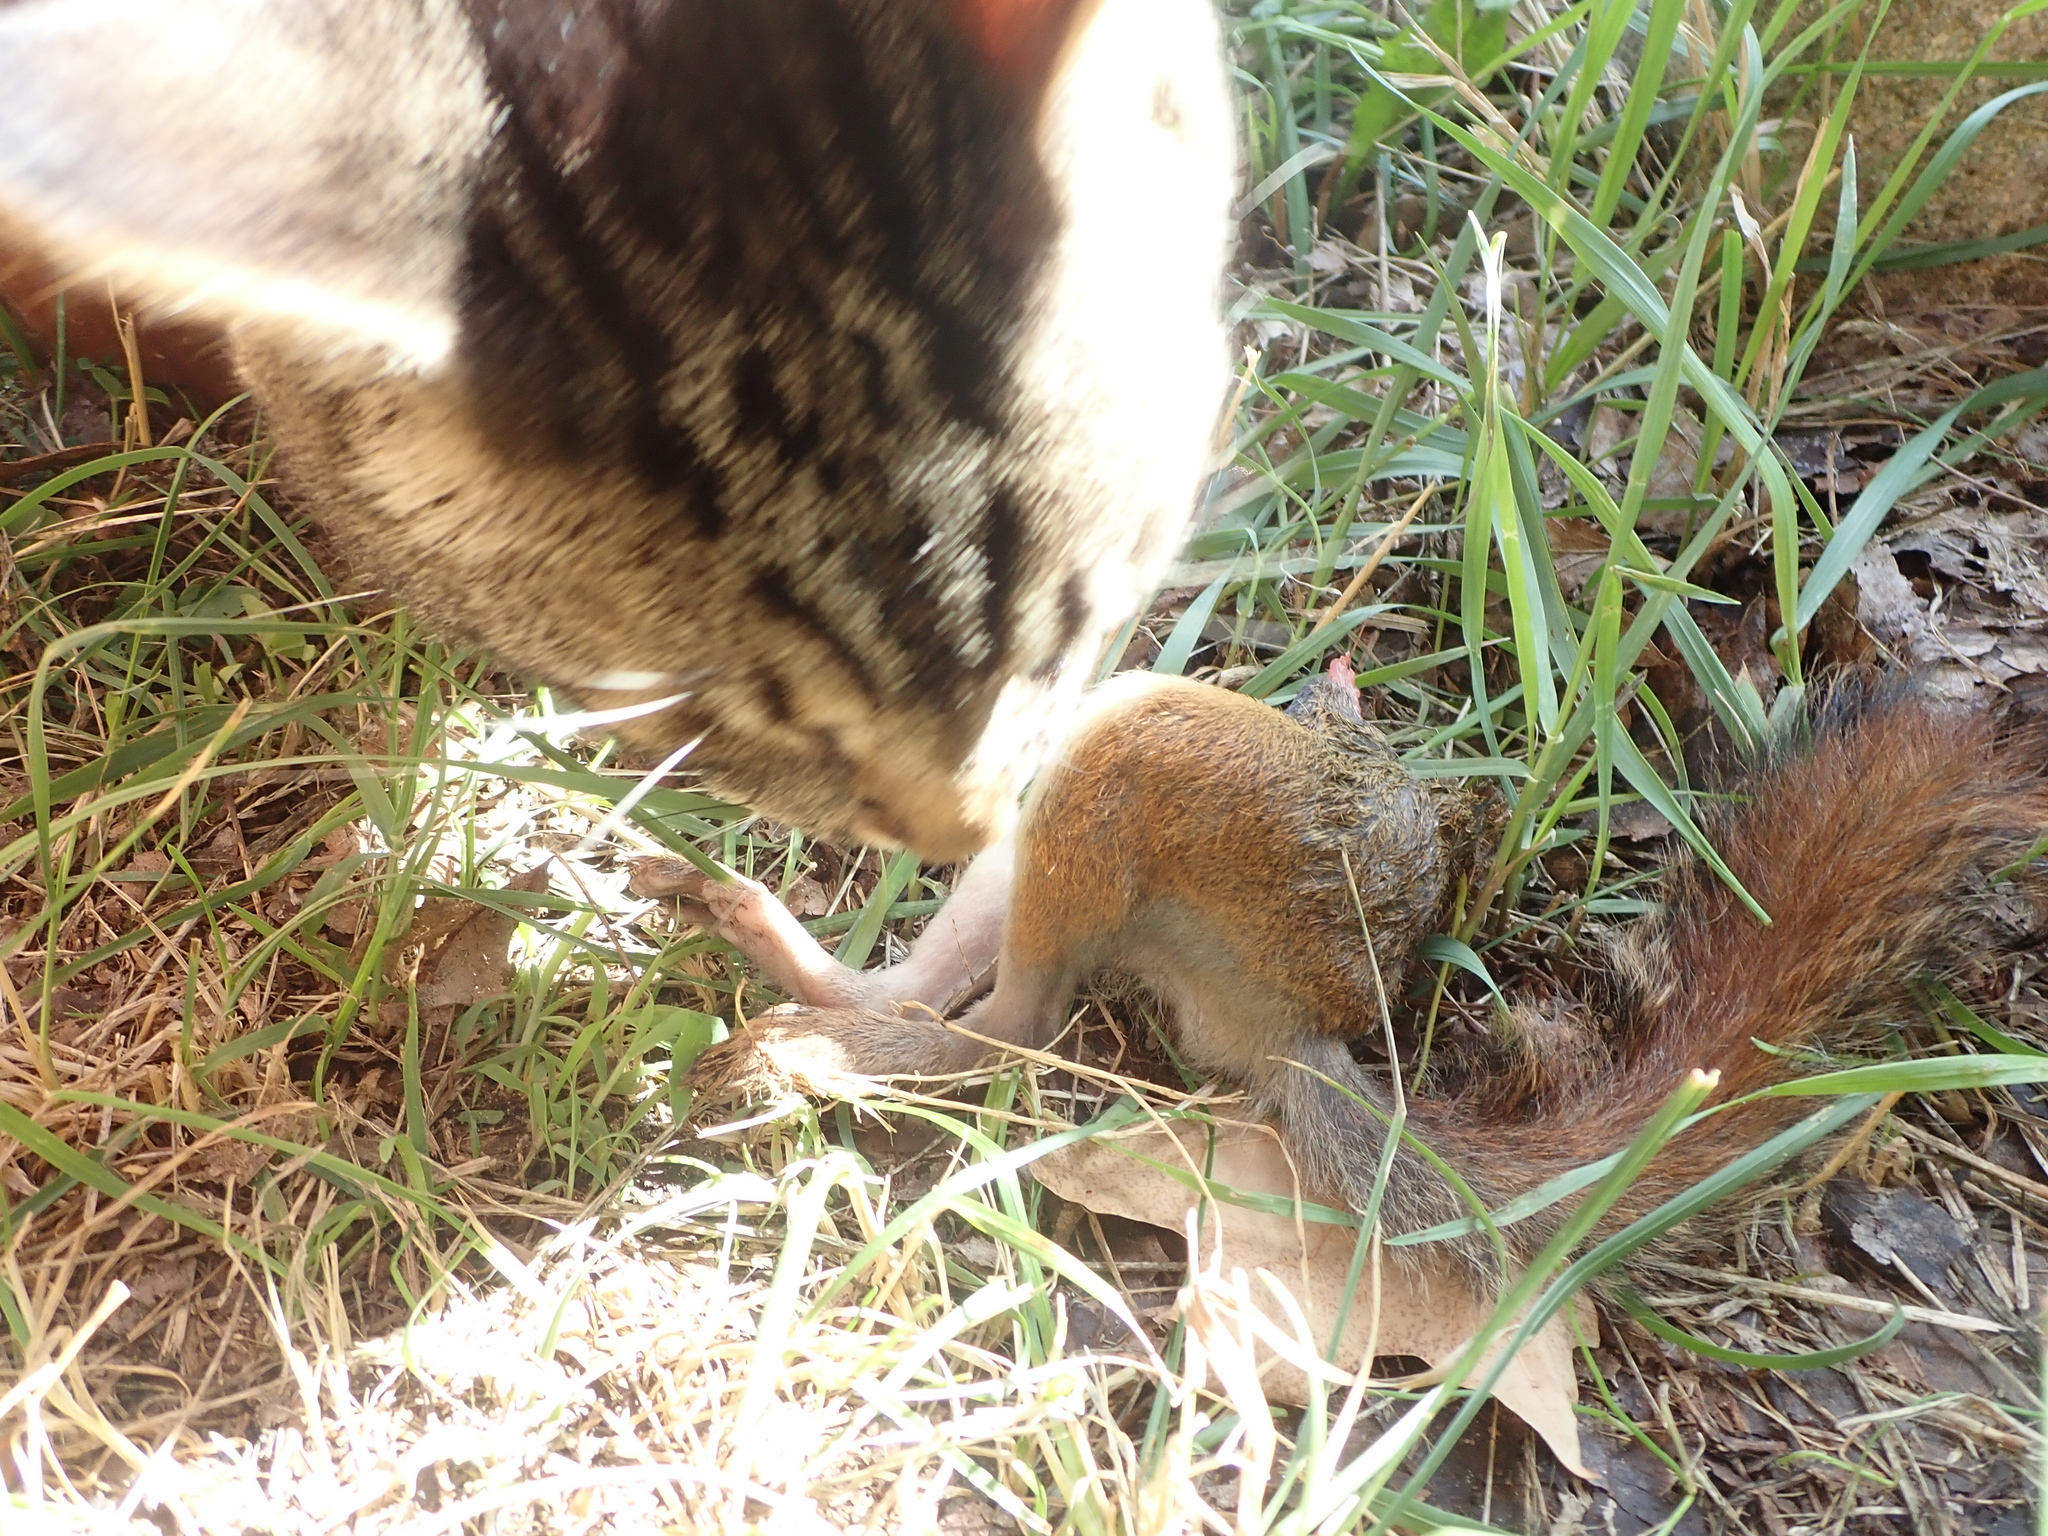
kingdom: Animalia
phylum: Chordata
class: Mammalia
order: Rodentia
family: Sciuridae
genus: Tamiasciurus
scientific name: Tamiasciurus hudsonicus
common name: Red squirrel
